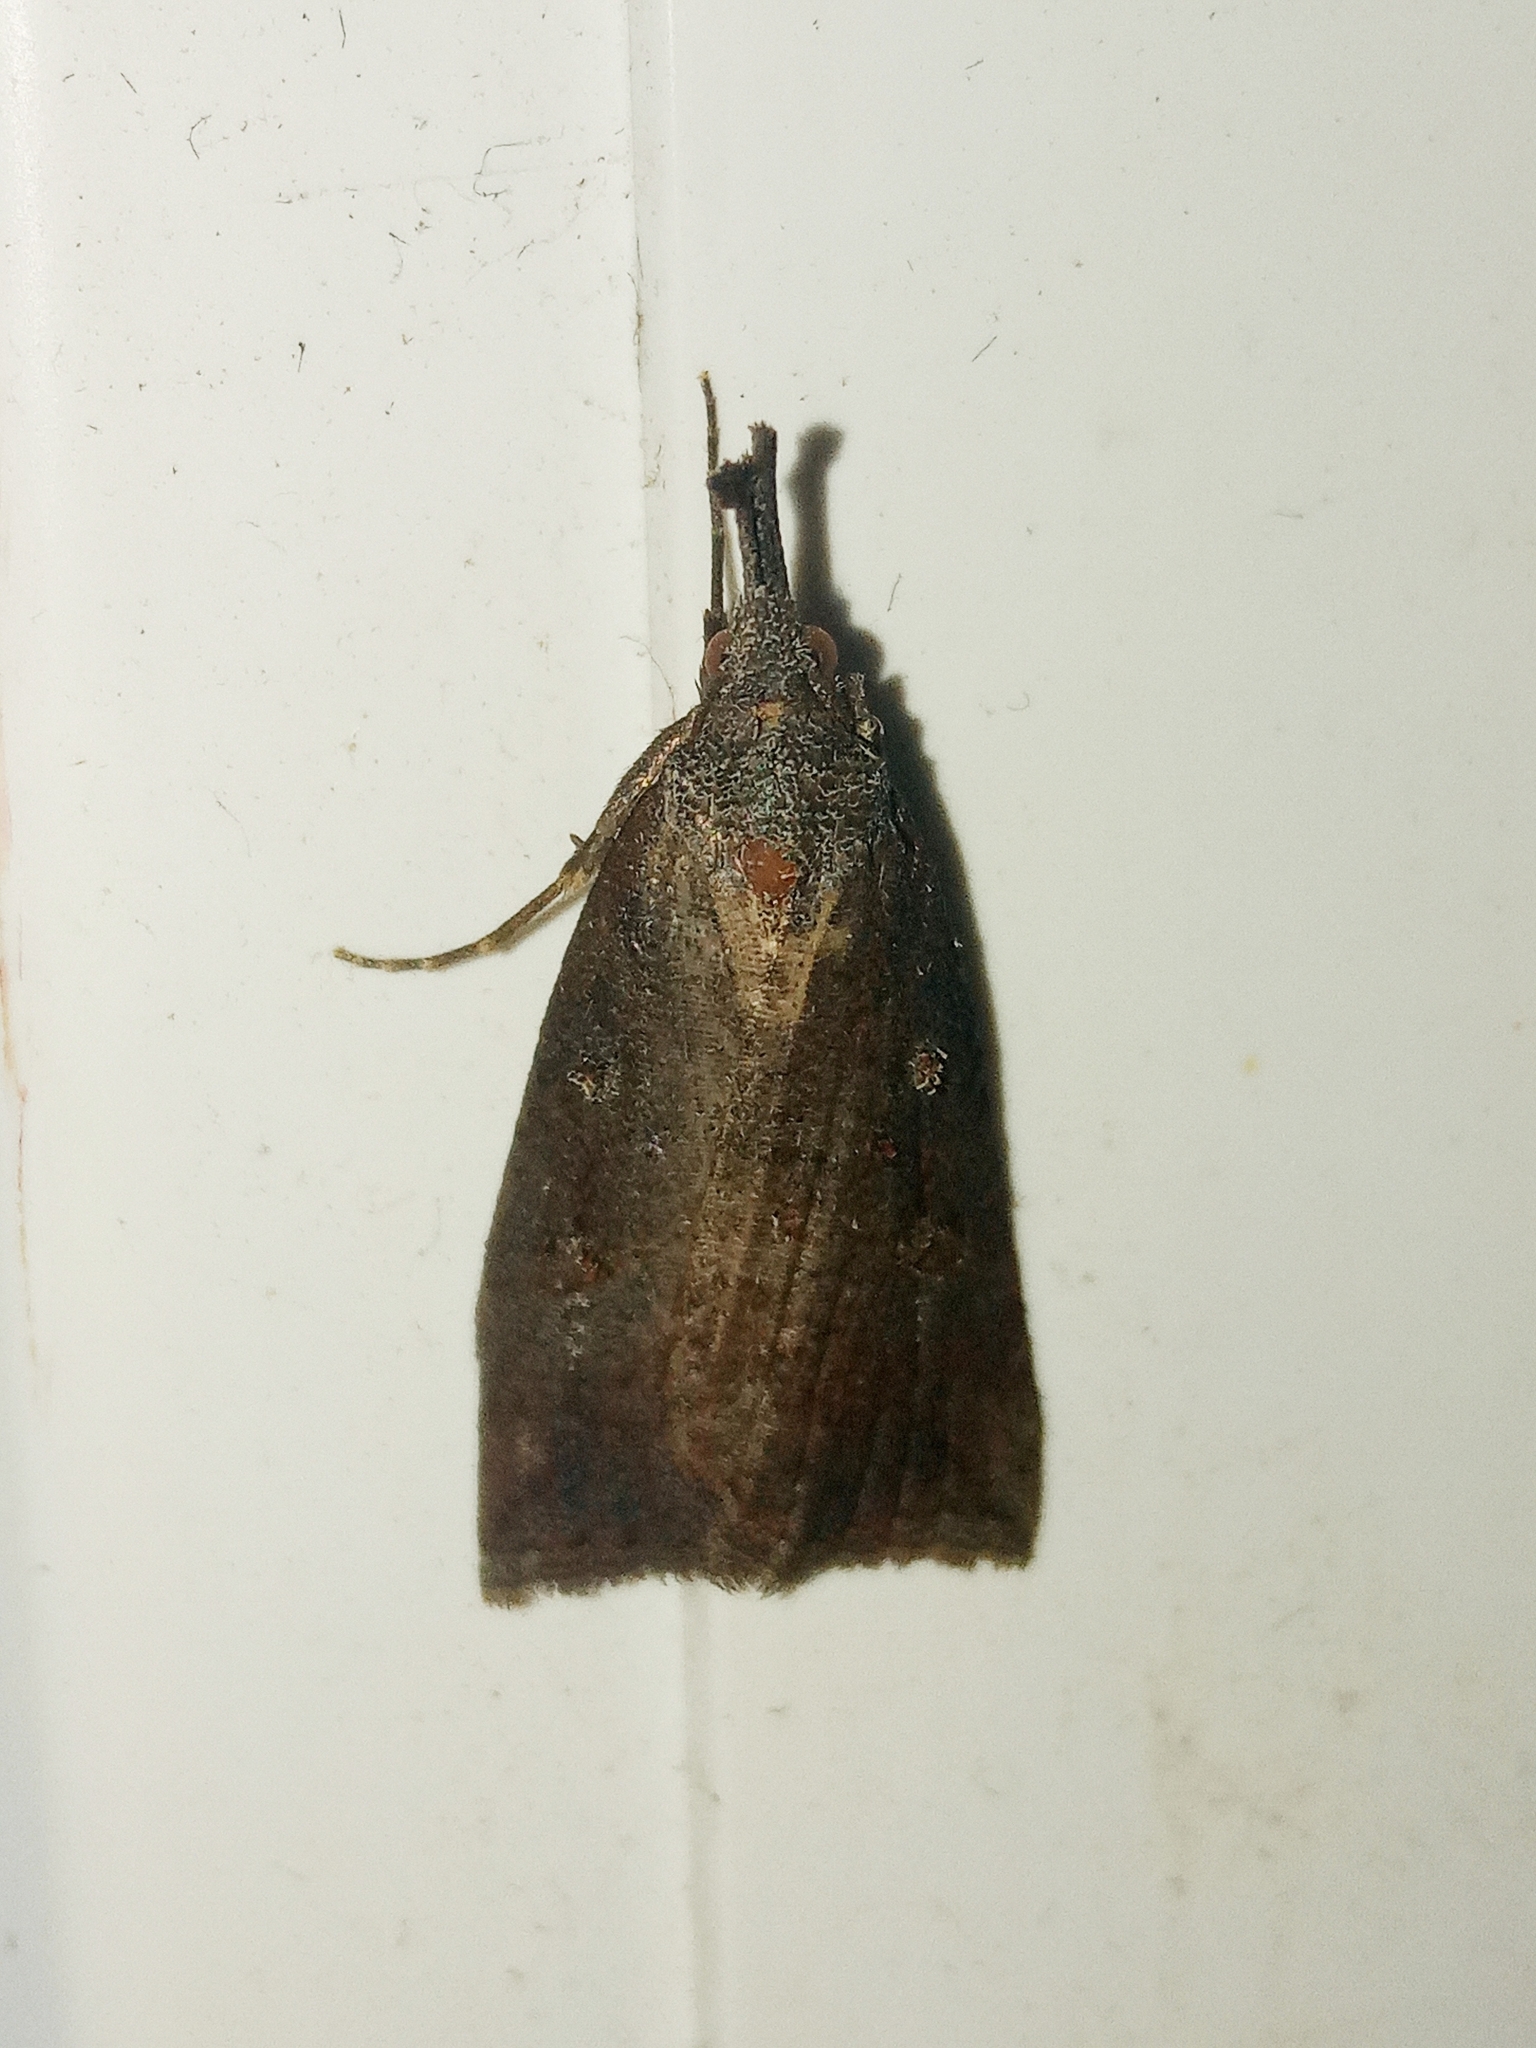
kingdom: Animalia
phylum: Arthropoda
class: Insecta
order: Lepidoptera
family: Erebidae
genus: Hypena
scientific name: Hypena rostralis
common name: Buttoned snout
